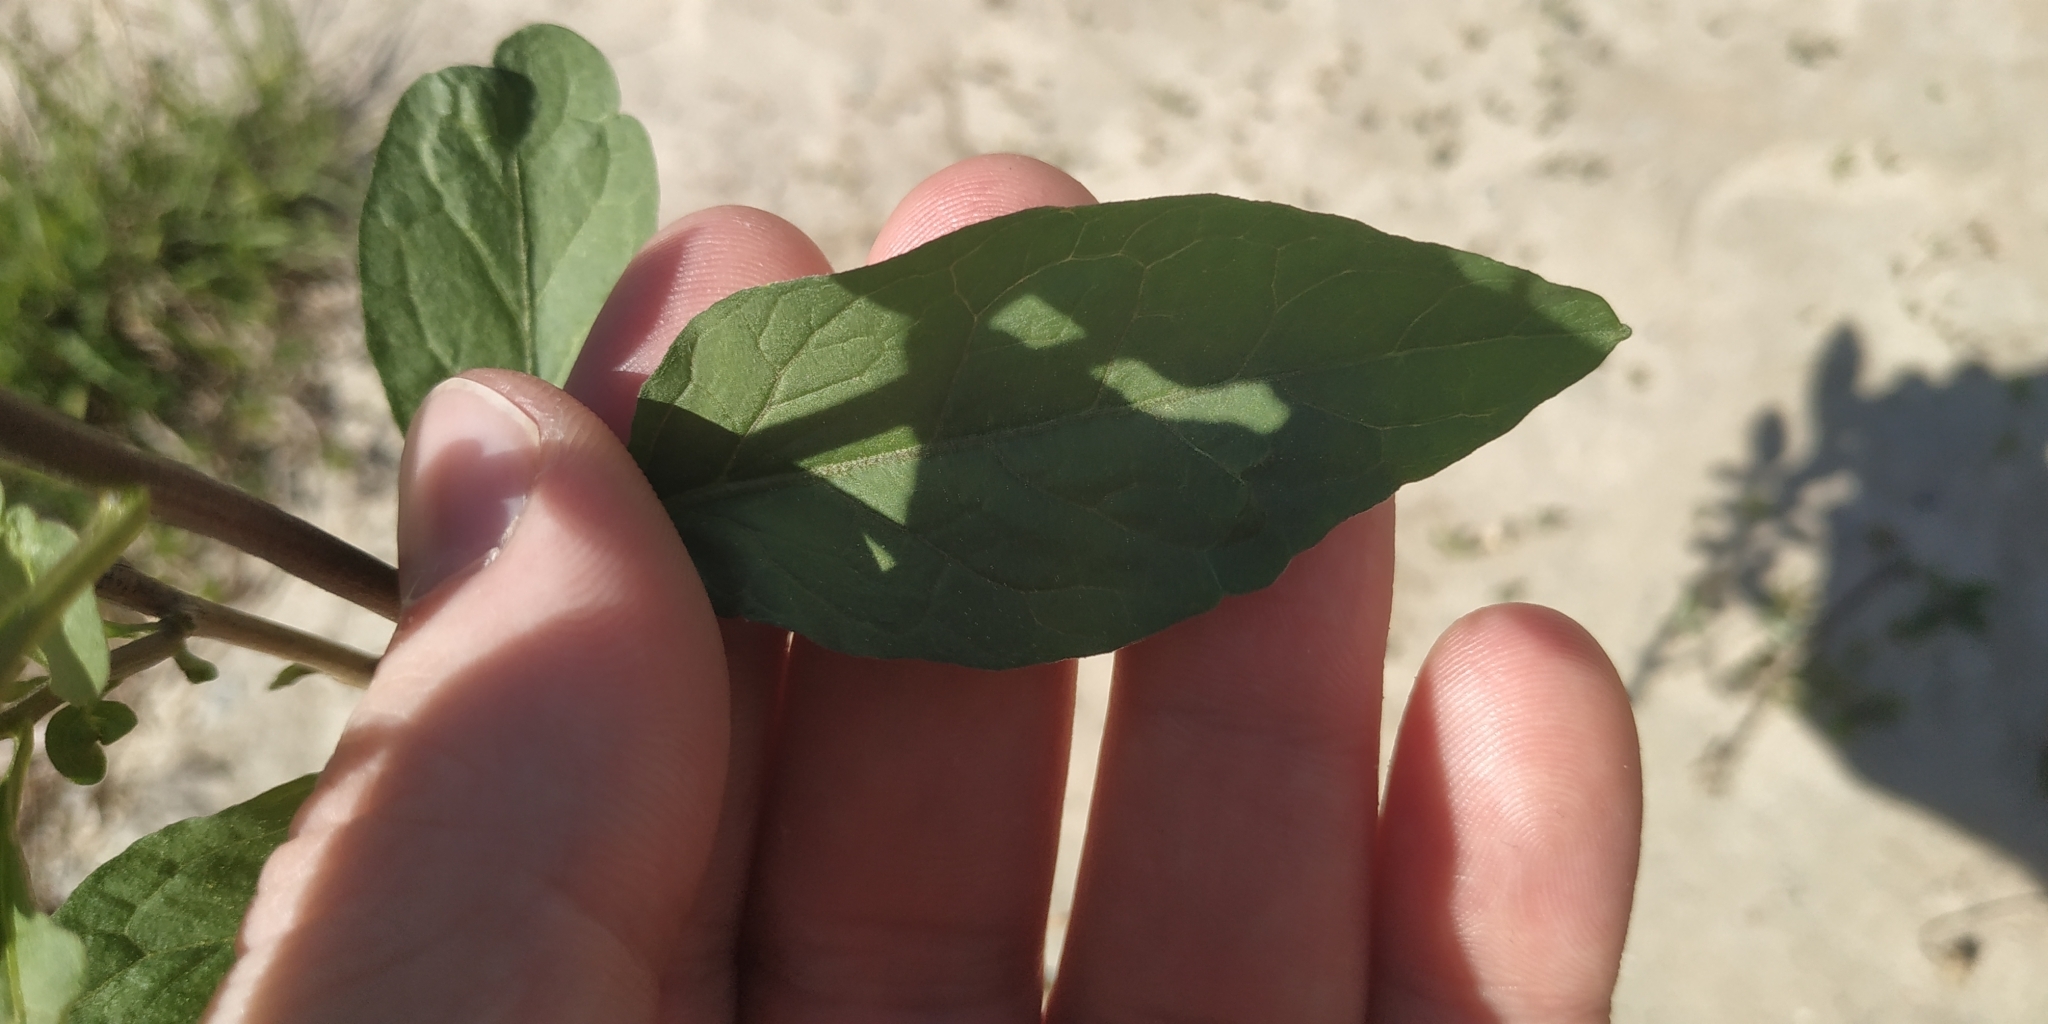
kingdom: Plantae
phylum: Tracheophyta
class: Magnoliopsida
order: Solanales
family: Solanaceae
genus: Solanum
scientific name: Solanum dulcamara
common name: Climbing nightshade
